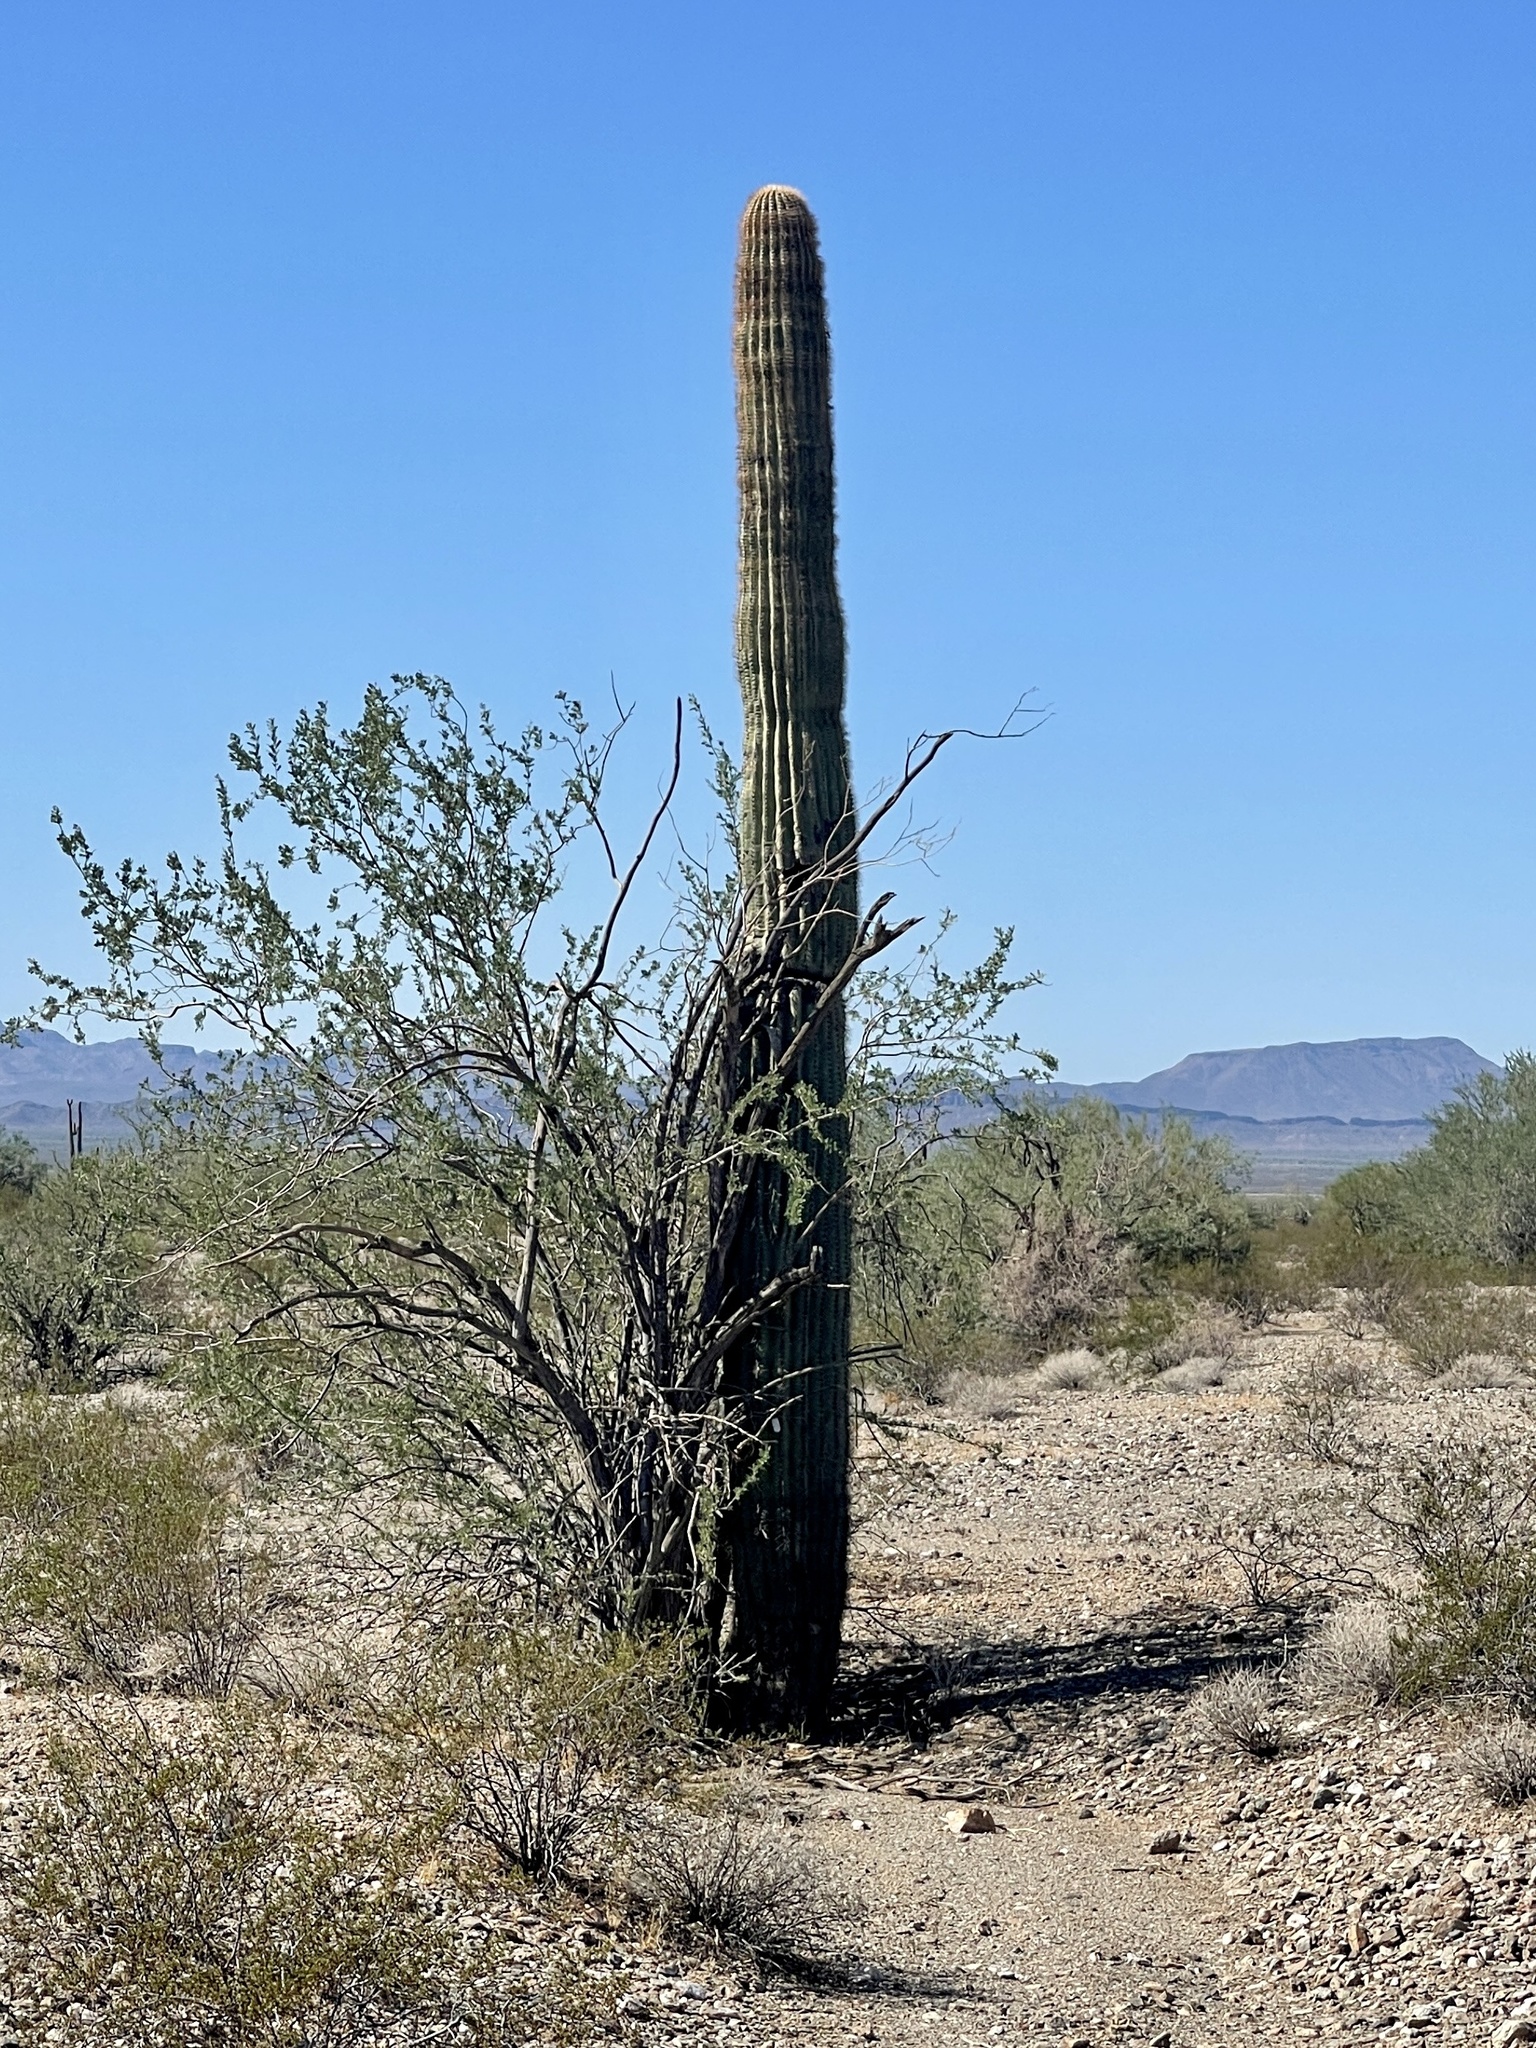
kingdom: Plantae
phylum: Tracheophyta
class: Magnoliopsida
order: Caryophyllales
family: Cactaceae
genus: Carnegiea
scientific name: Carnegiea gigantea
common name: Saguaro
